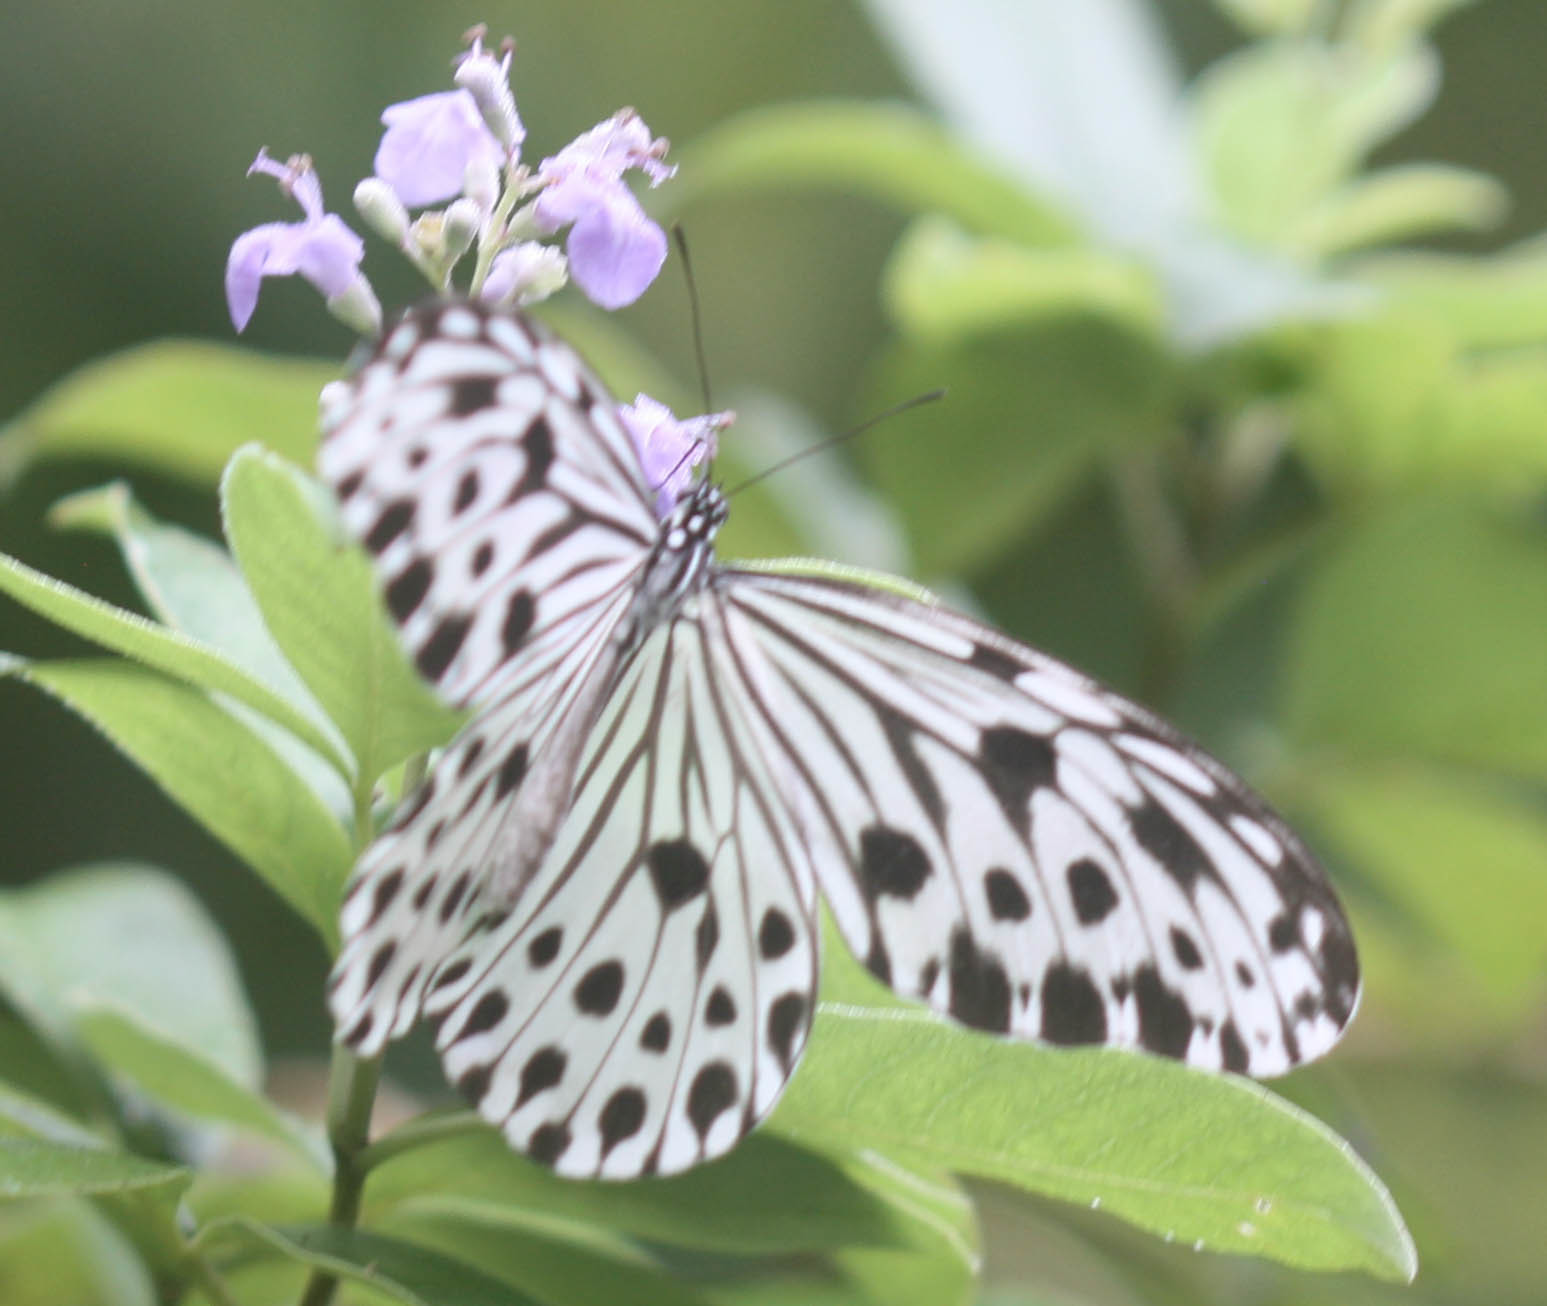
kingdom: Animalia
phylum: Arthropoda
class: Insecta
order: Lepidoptera
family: Nymphalidae
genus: Ideopsis
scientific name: Ideopsis gaura
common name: Smaller wood nymph
